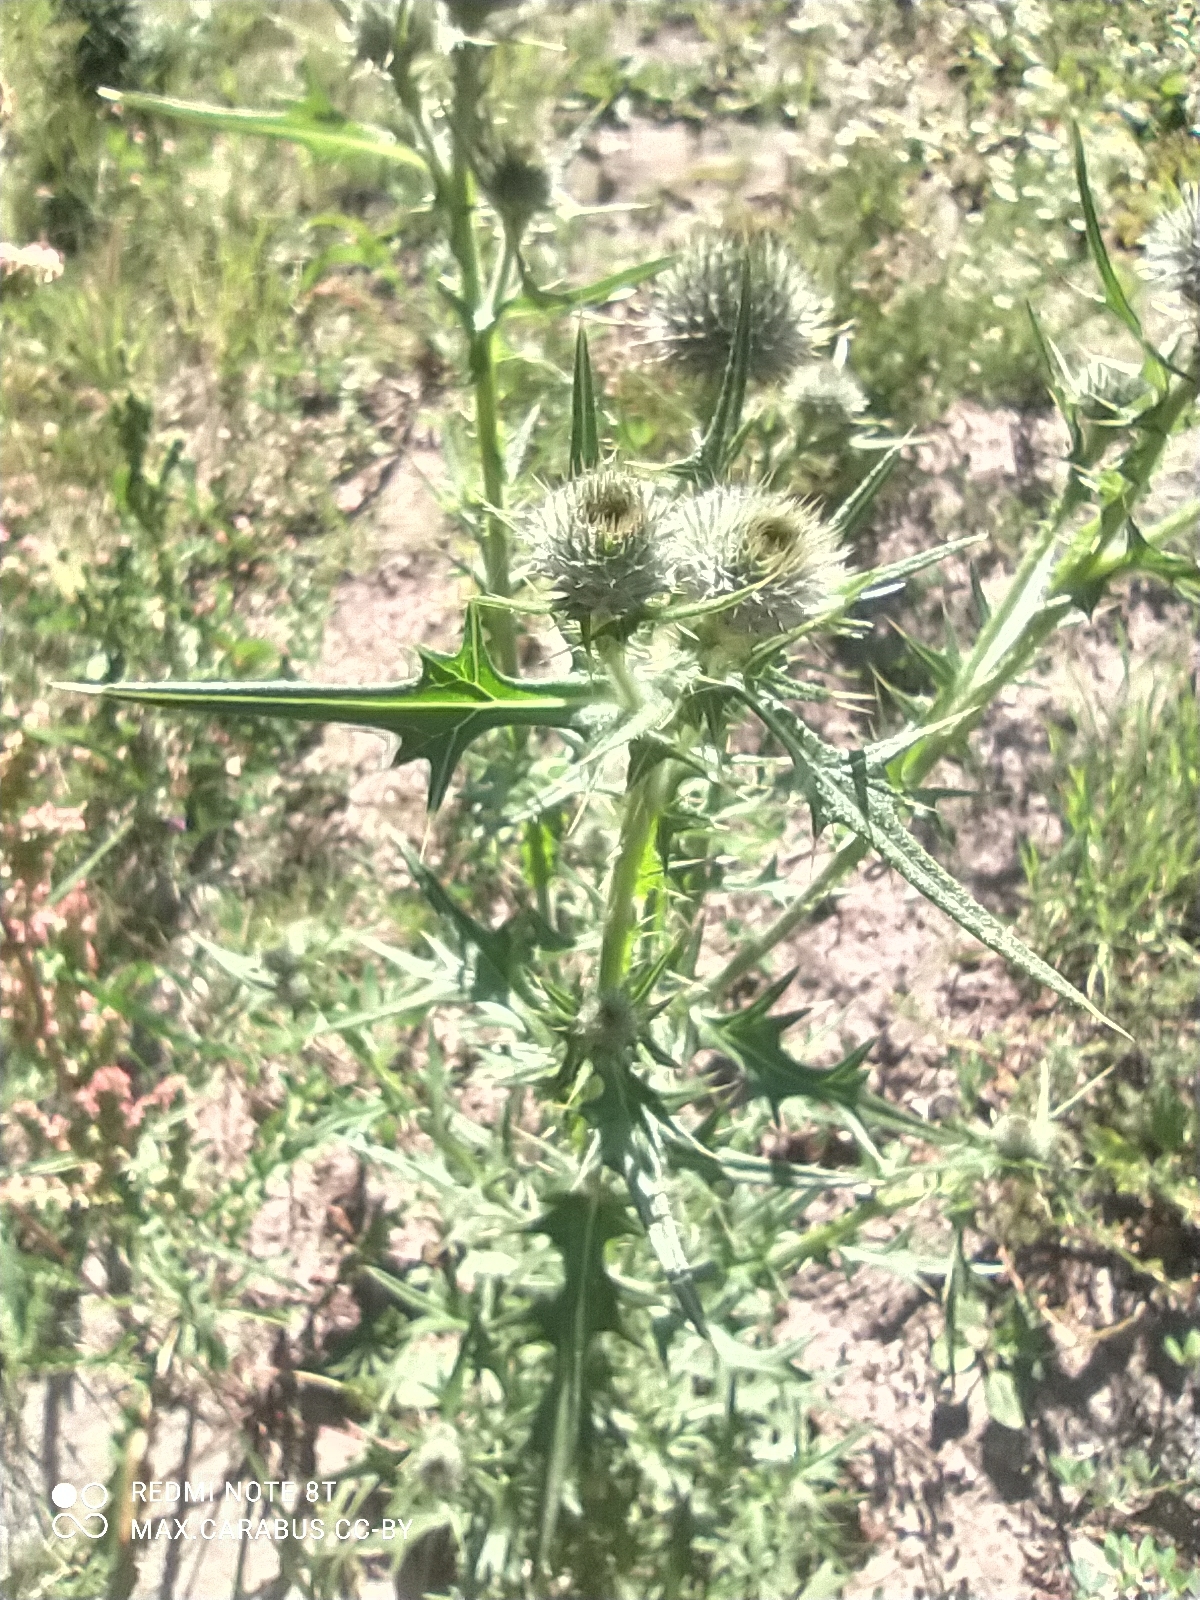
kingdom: Plantae
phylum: Tracheophyta
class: Magnoliopsida
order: Asterales
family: Asteraceae
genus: Cirsium
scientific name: Cirsium vulgare
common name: Bull thistle
